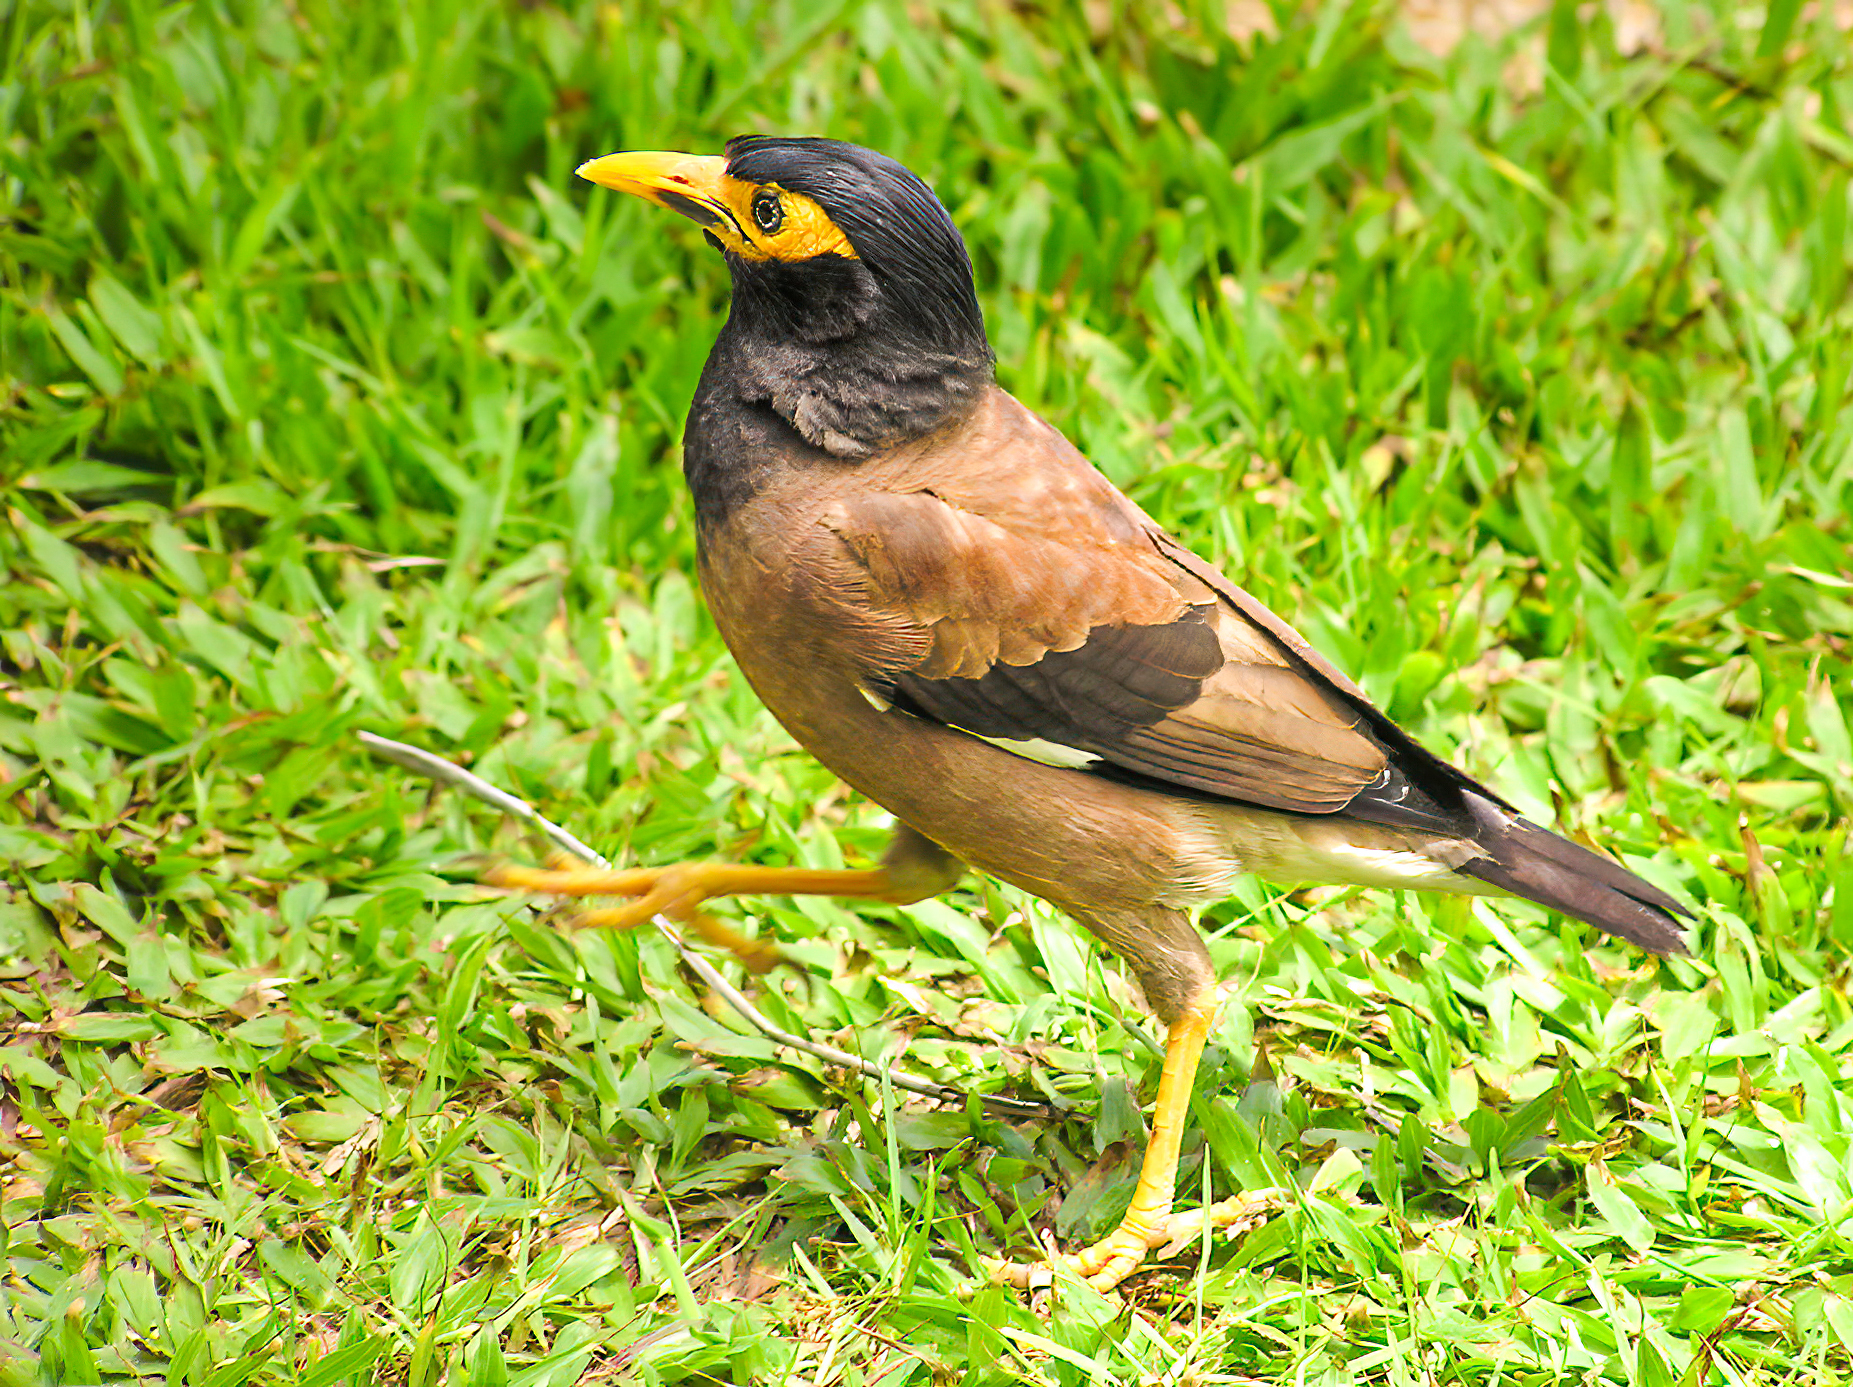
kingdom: Animalia
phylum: Chordata
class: Aves
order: Passeriformes
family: Sturnidae
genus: Acridotheres
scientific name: Acridotheres tristis
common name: Common myna
